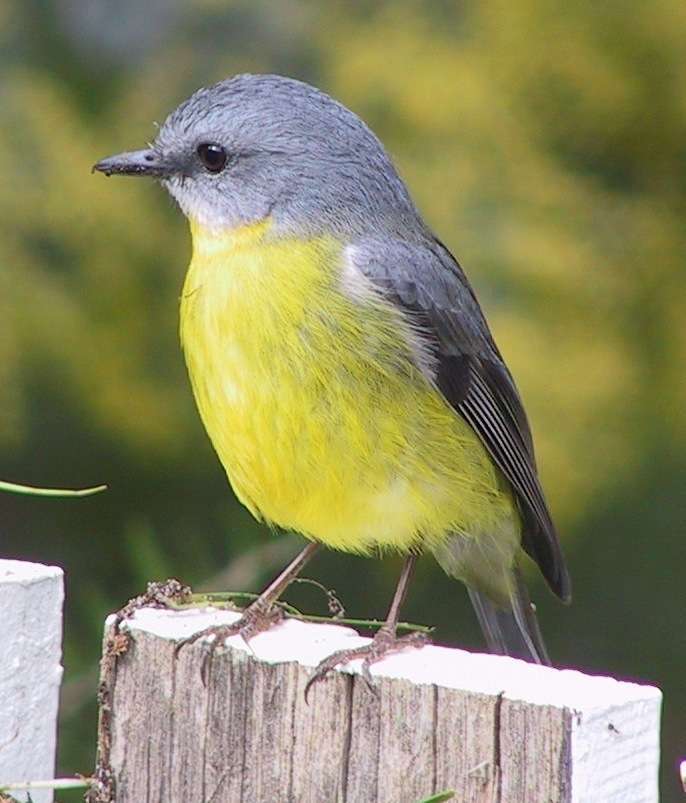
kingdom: Animalia
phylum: Chordata
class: Aves
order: Passeriformes
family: Petroicidae
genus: Eopsaltria
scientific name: Eopsaltria australis
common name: Eastern yellow robin
